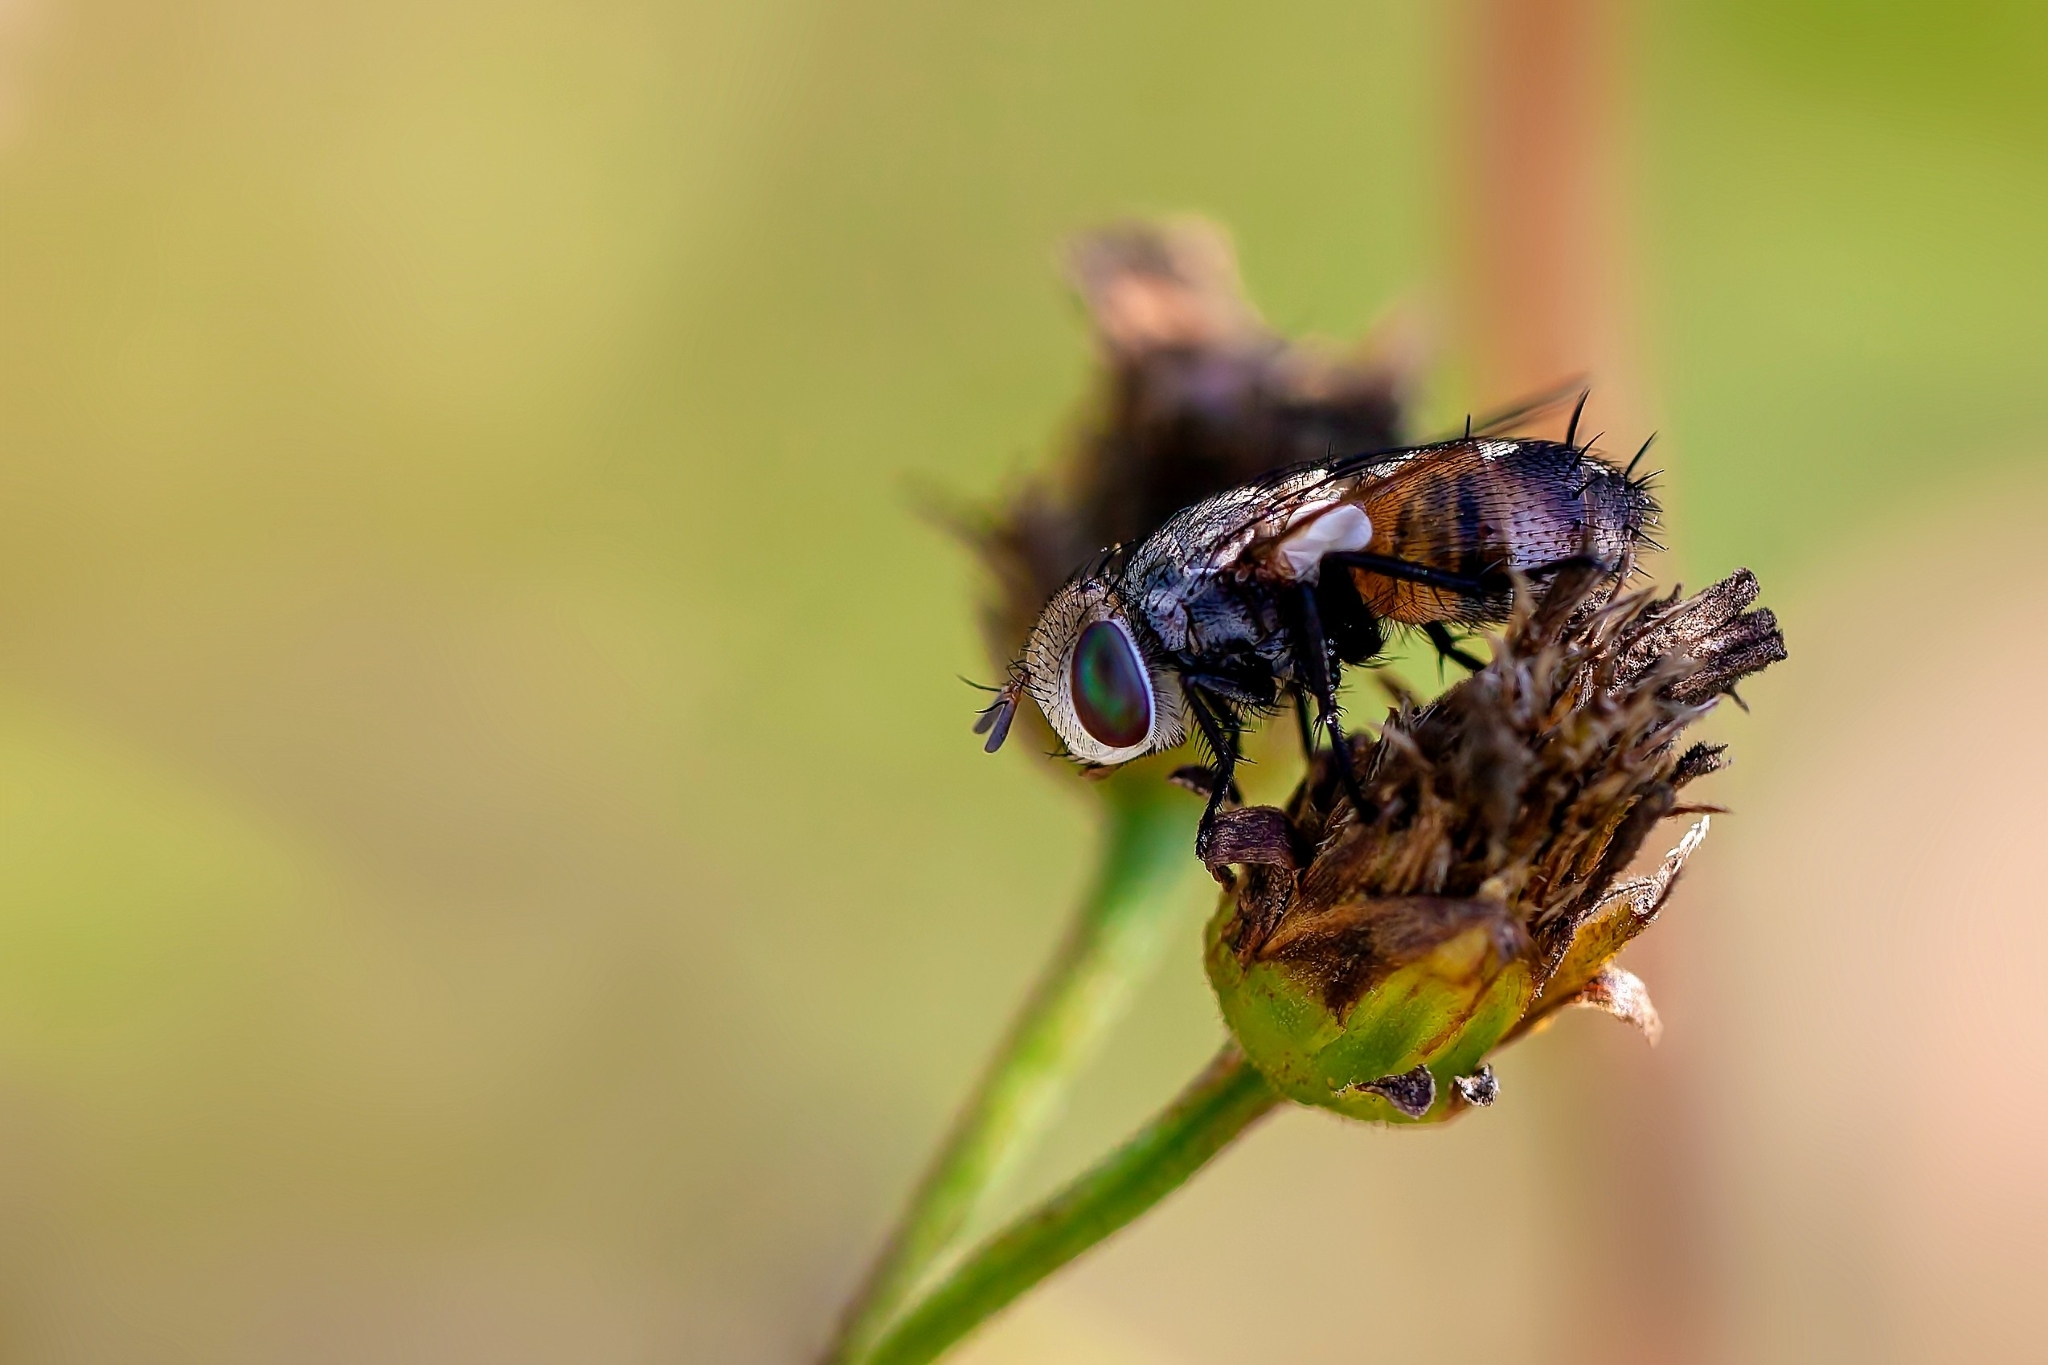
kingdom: Animalia
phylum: Arthropoda
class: Insecta
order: Diptera
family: Tachinidae
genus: Gonia
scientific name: Gonia crassicornis
